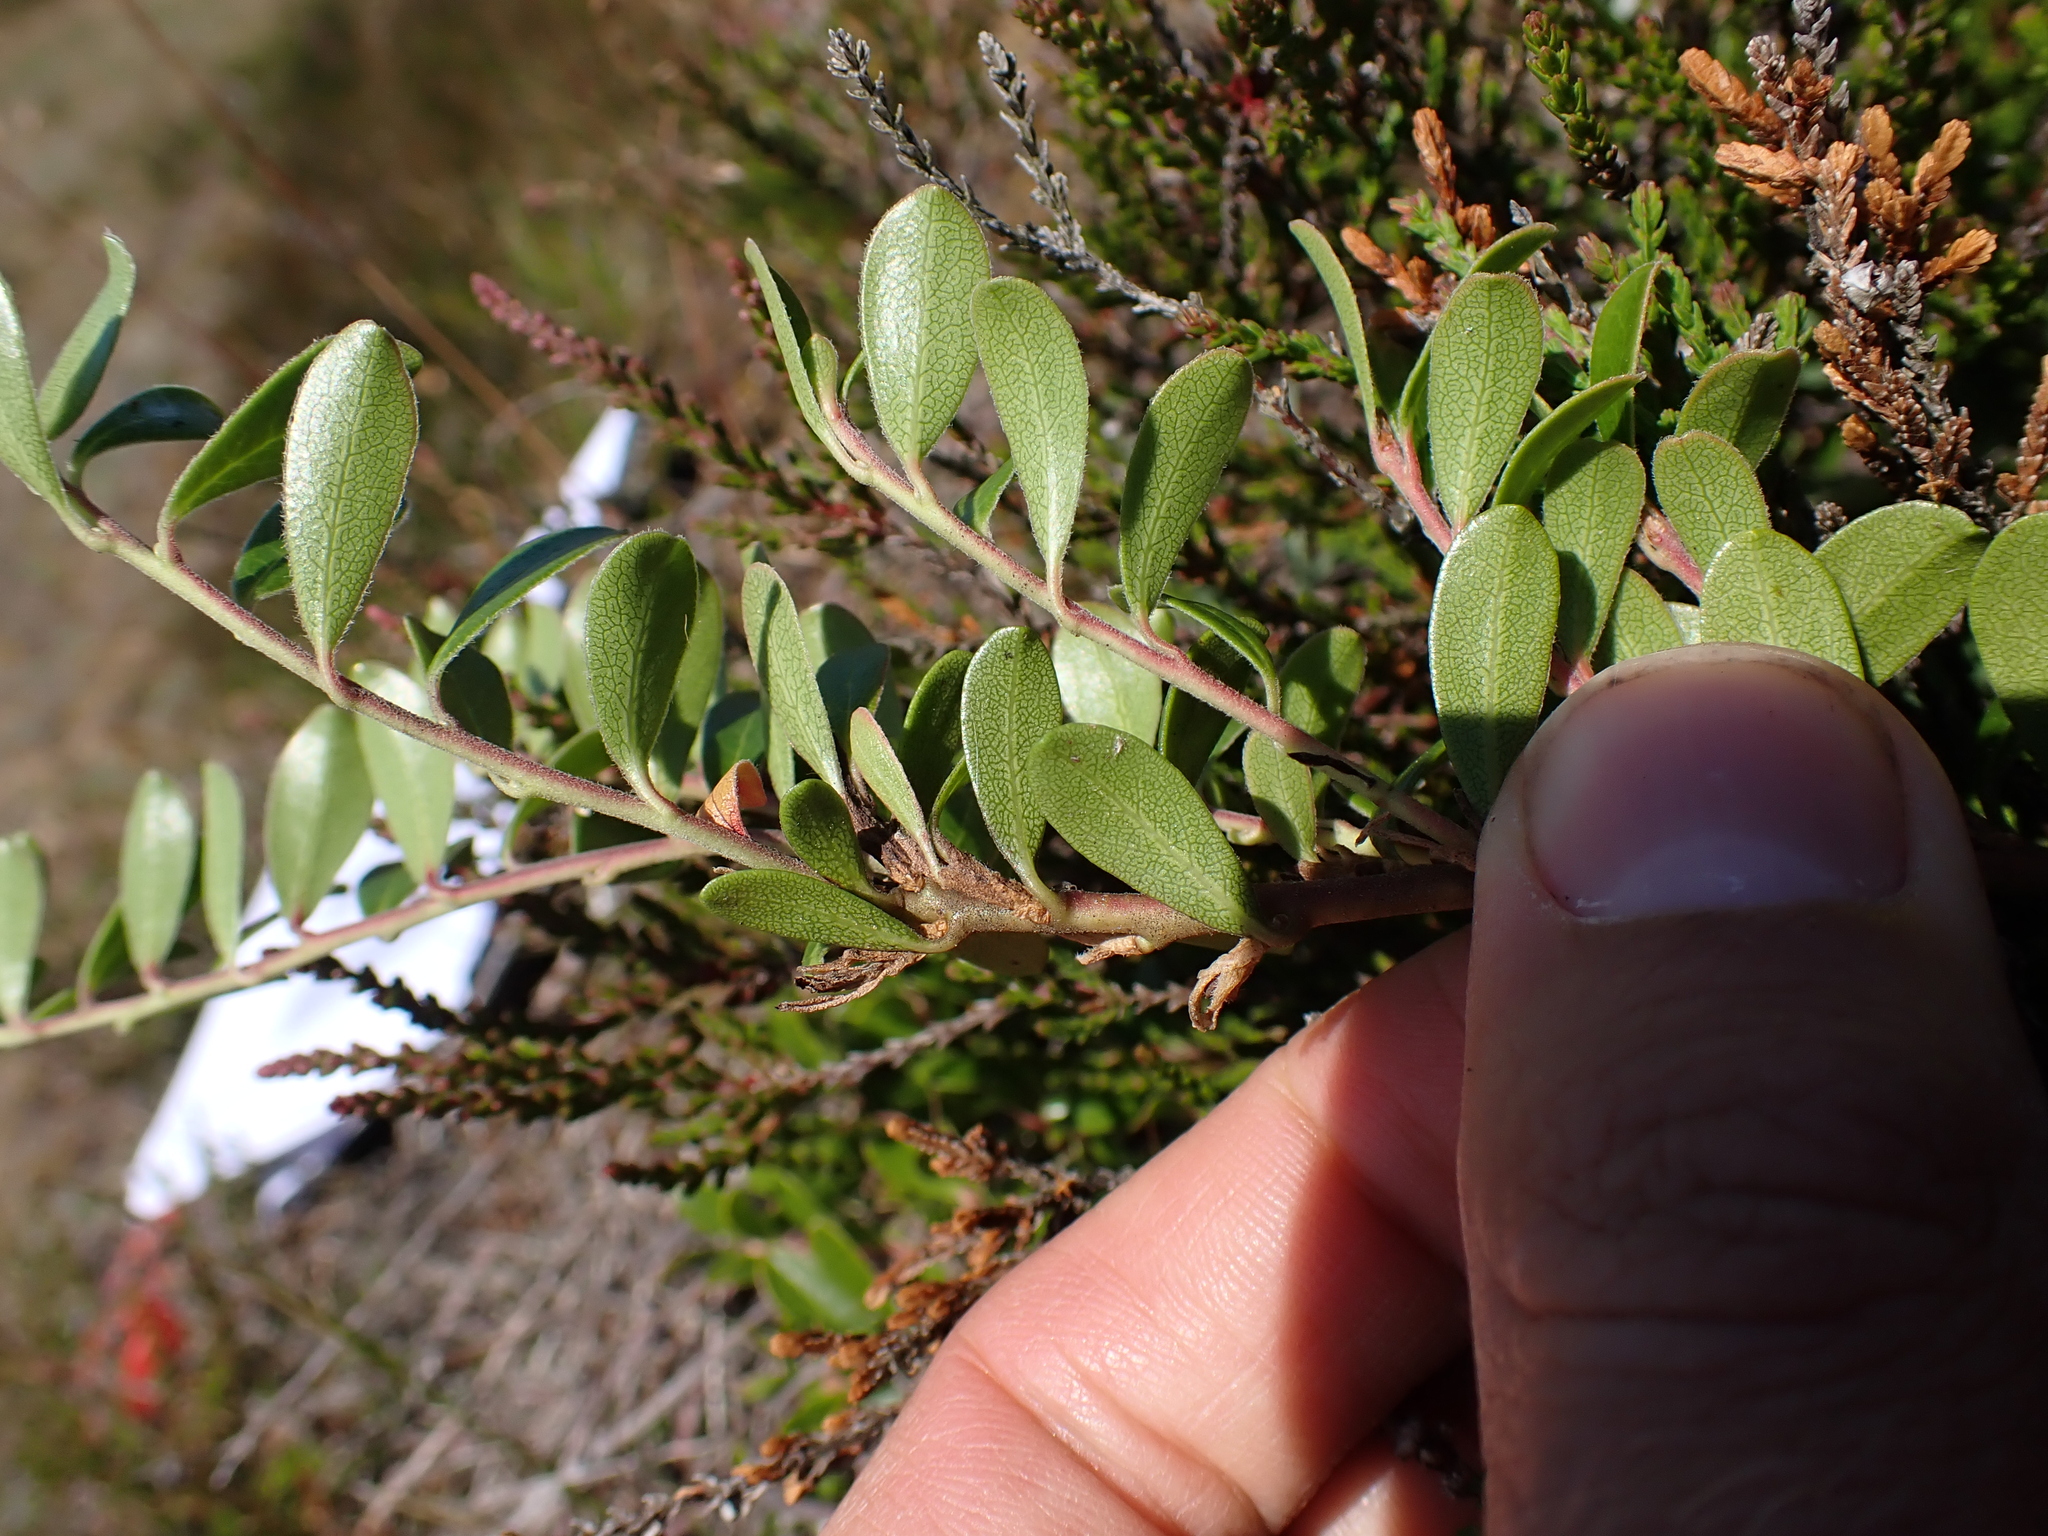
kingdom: Plantae
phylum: Tracheophyta
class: Magnoliopsida
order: Ericales
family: Ericaceae
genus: Arctostaphylos
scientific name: Arctostaphylos uva-ursi
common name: Bearberry
